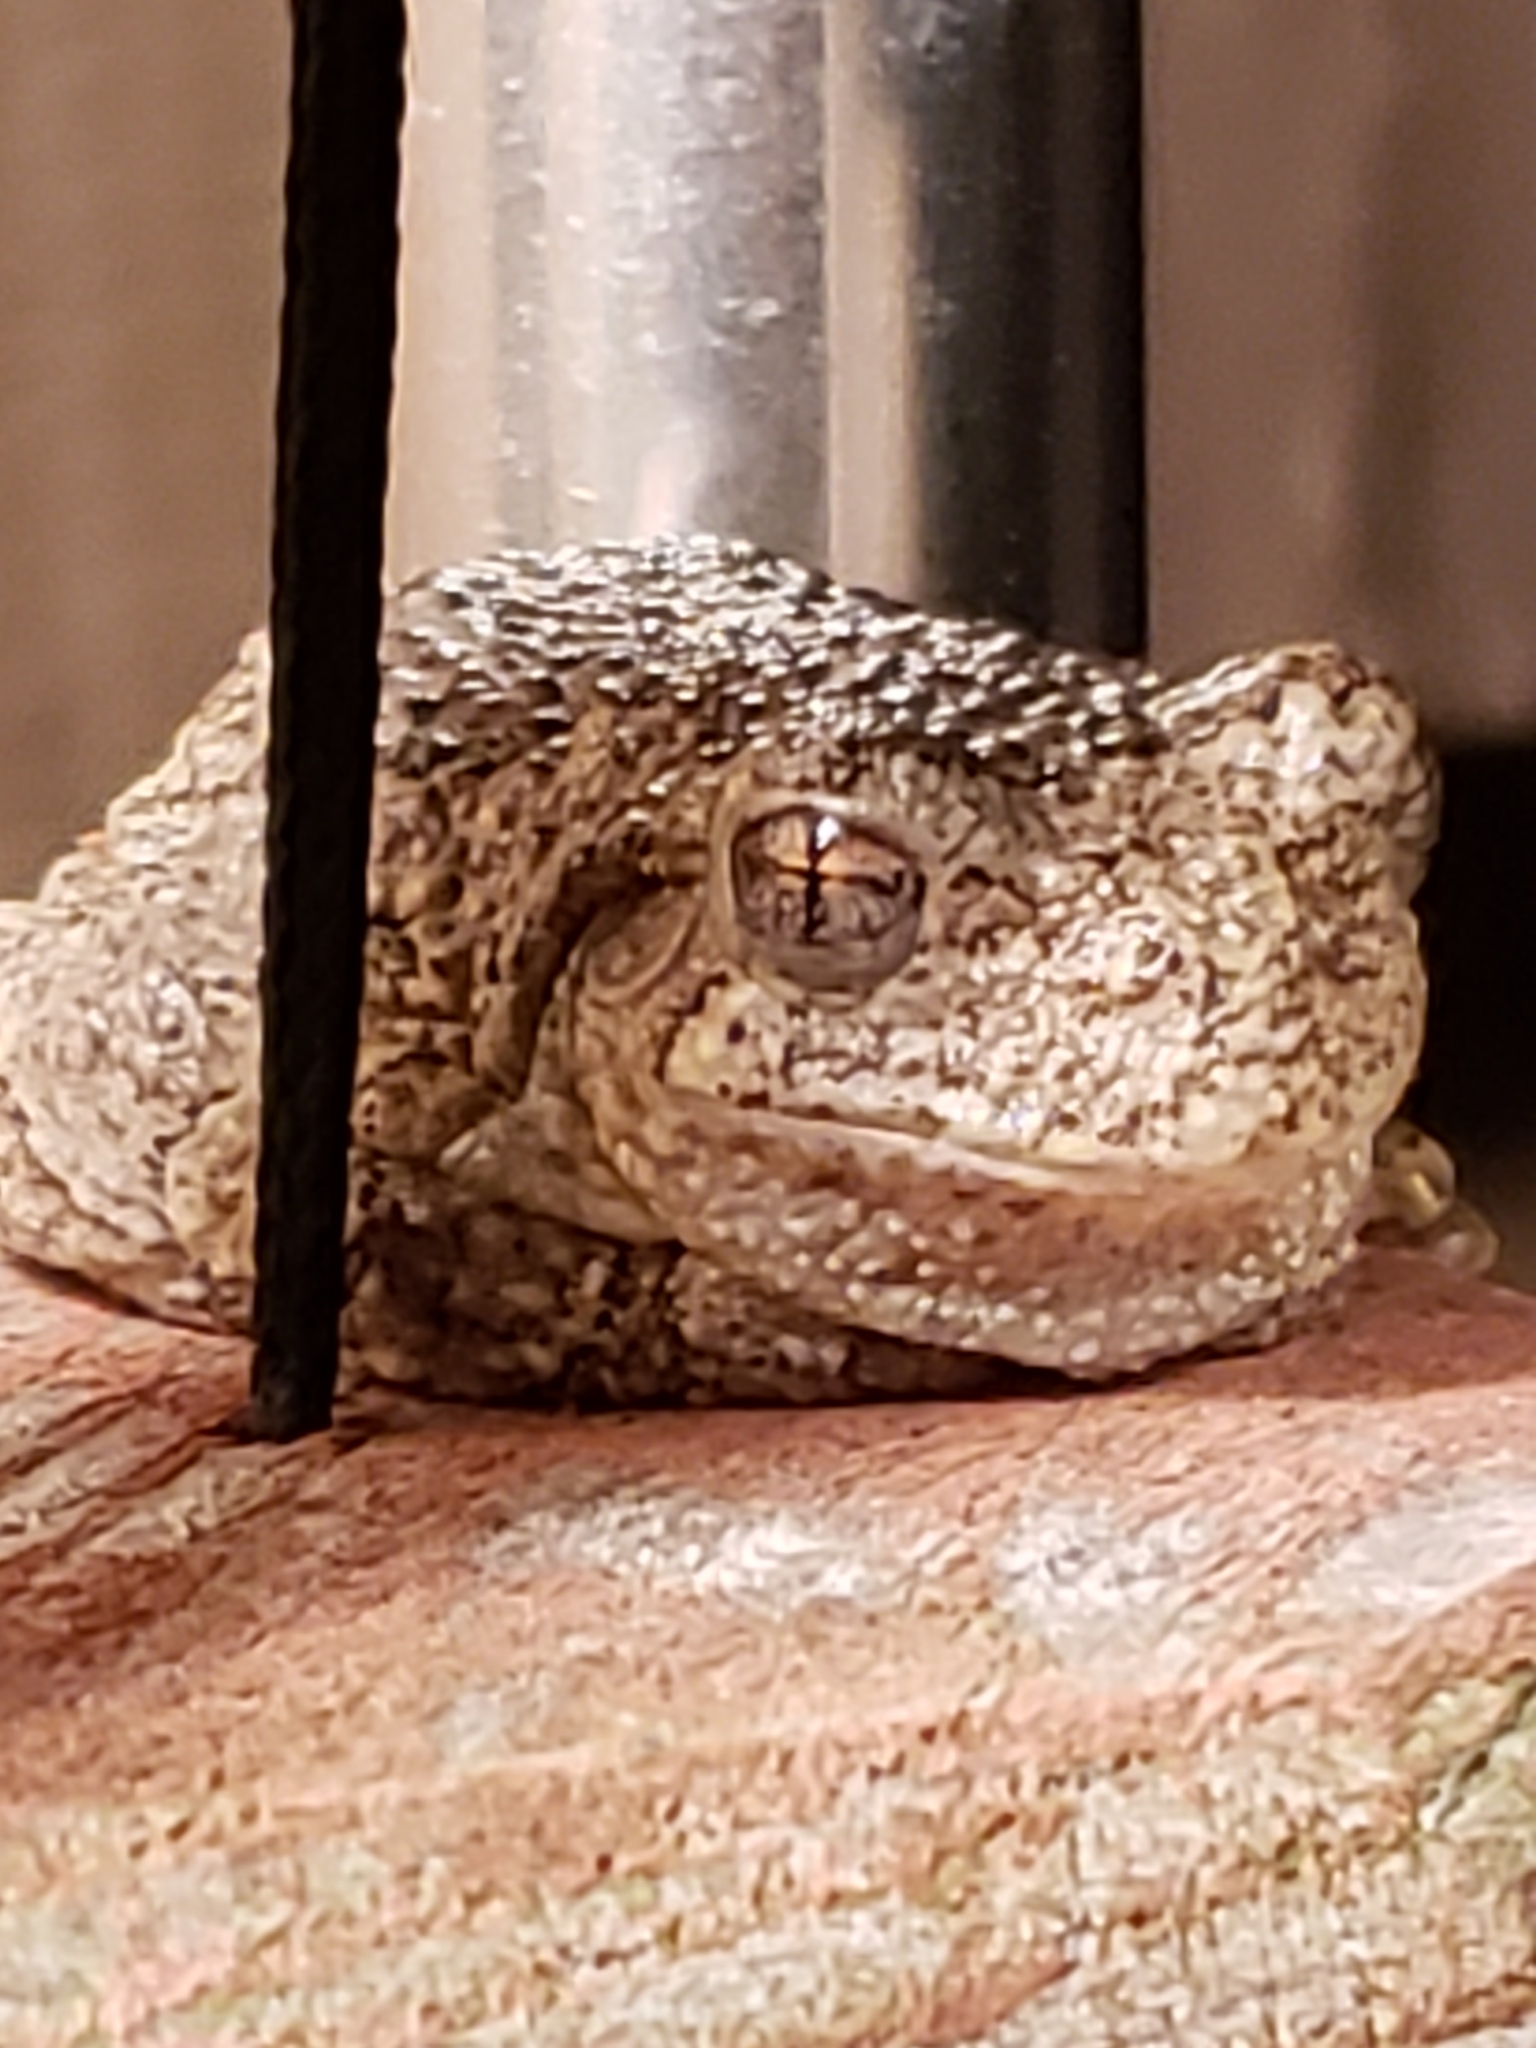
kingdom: Animalia
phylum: Chordata
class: Amphibia
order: Anura
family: Hylidae
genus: Hyla
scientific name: Hyla
